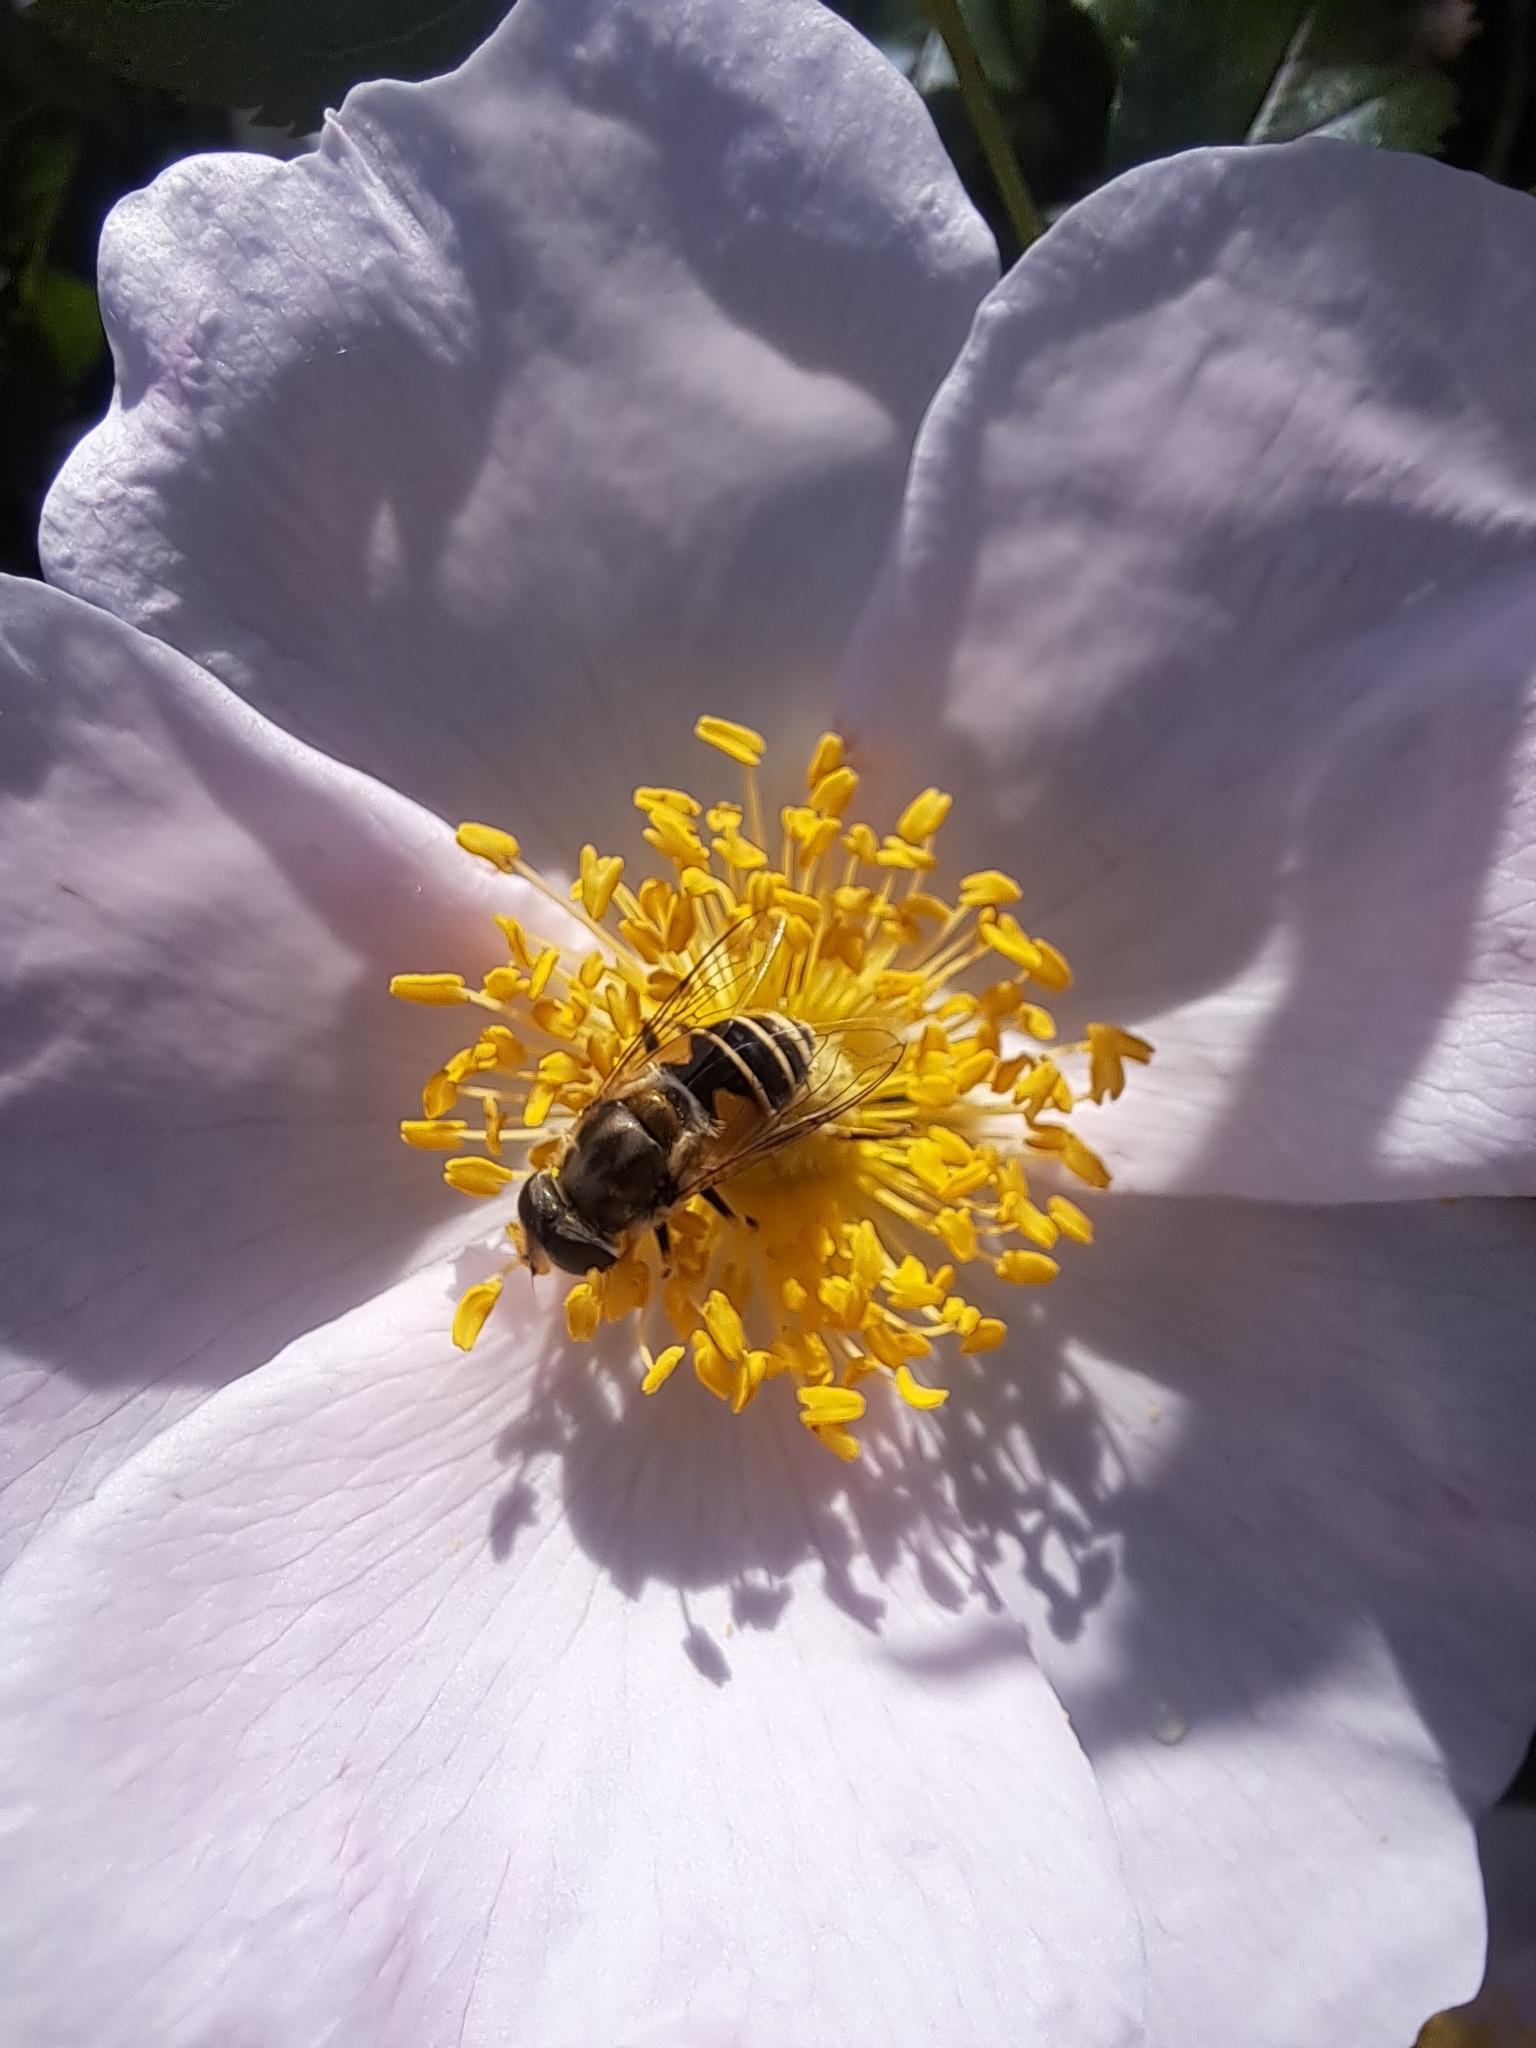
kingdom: Animalia
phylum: Arthropoda
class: Insecta
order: Diptera
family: Syrphidae
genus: Eristalis
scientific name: Eristalis arbustorum
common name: Hover fly
